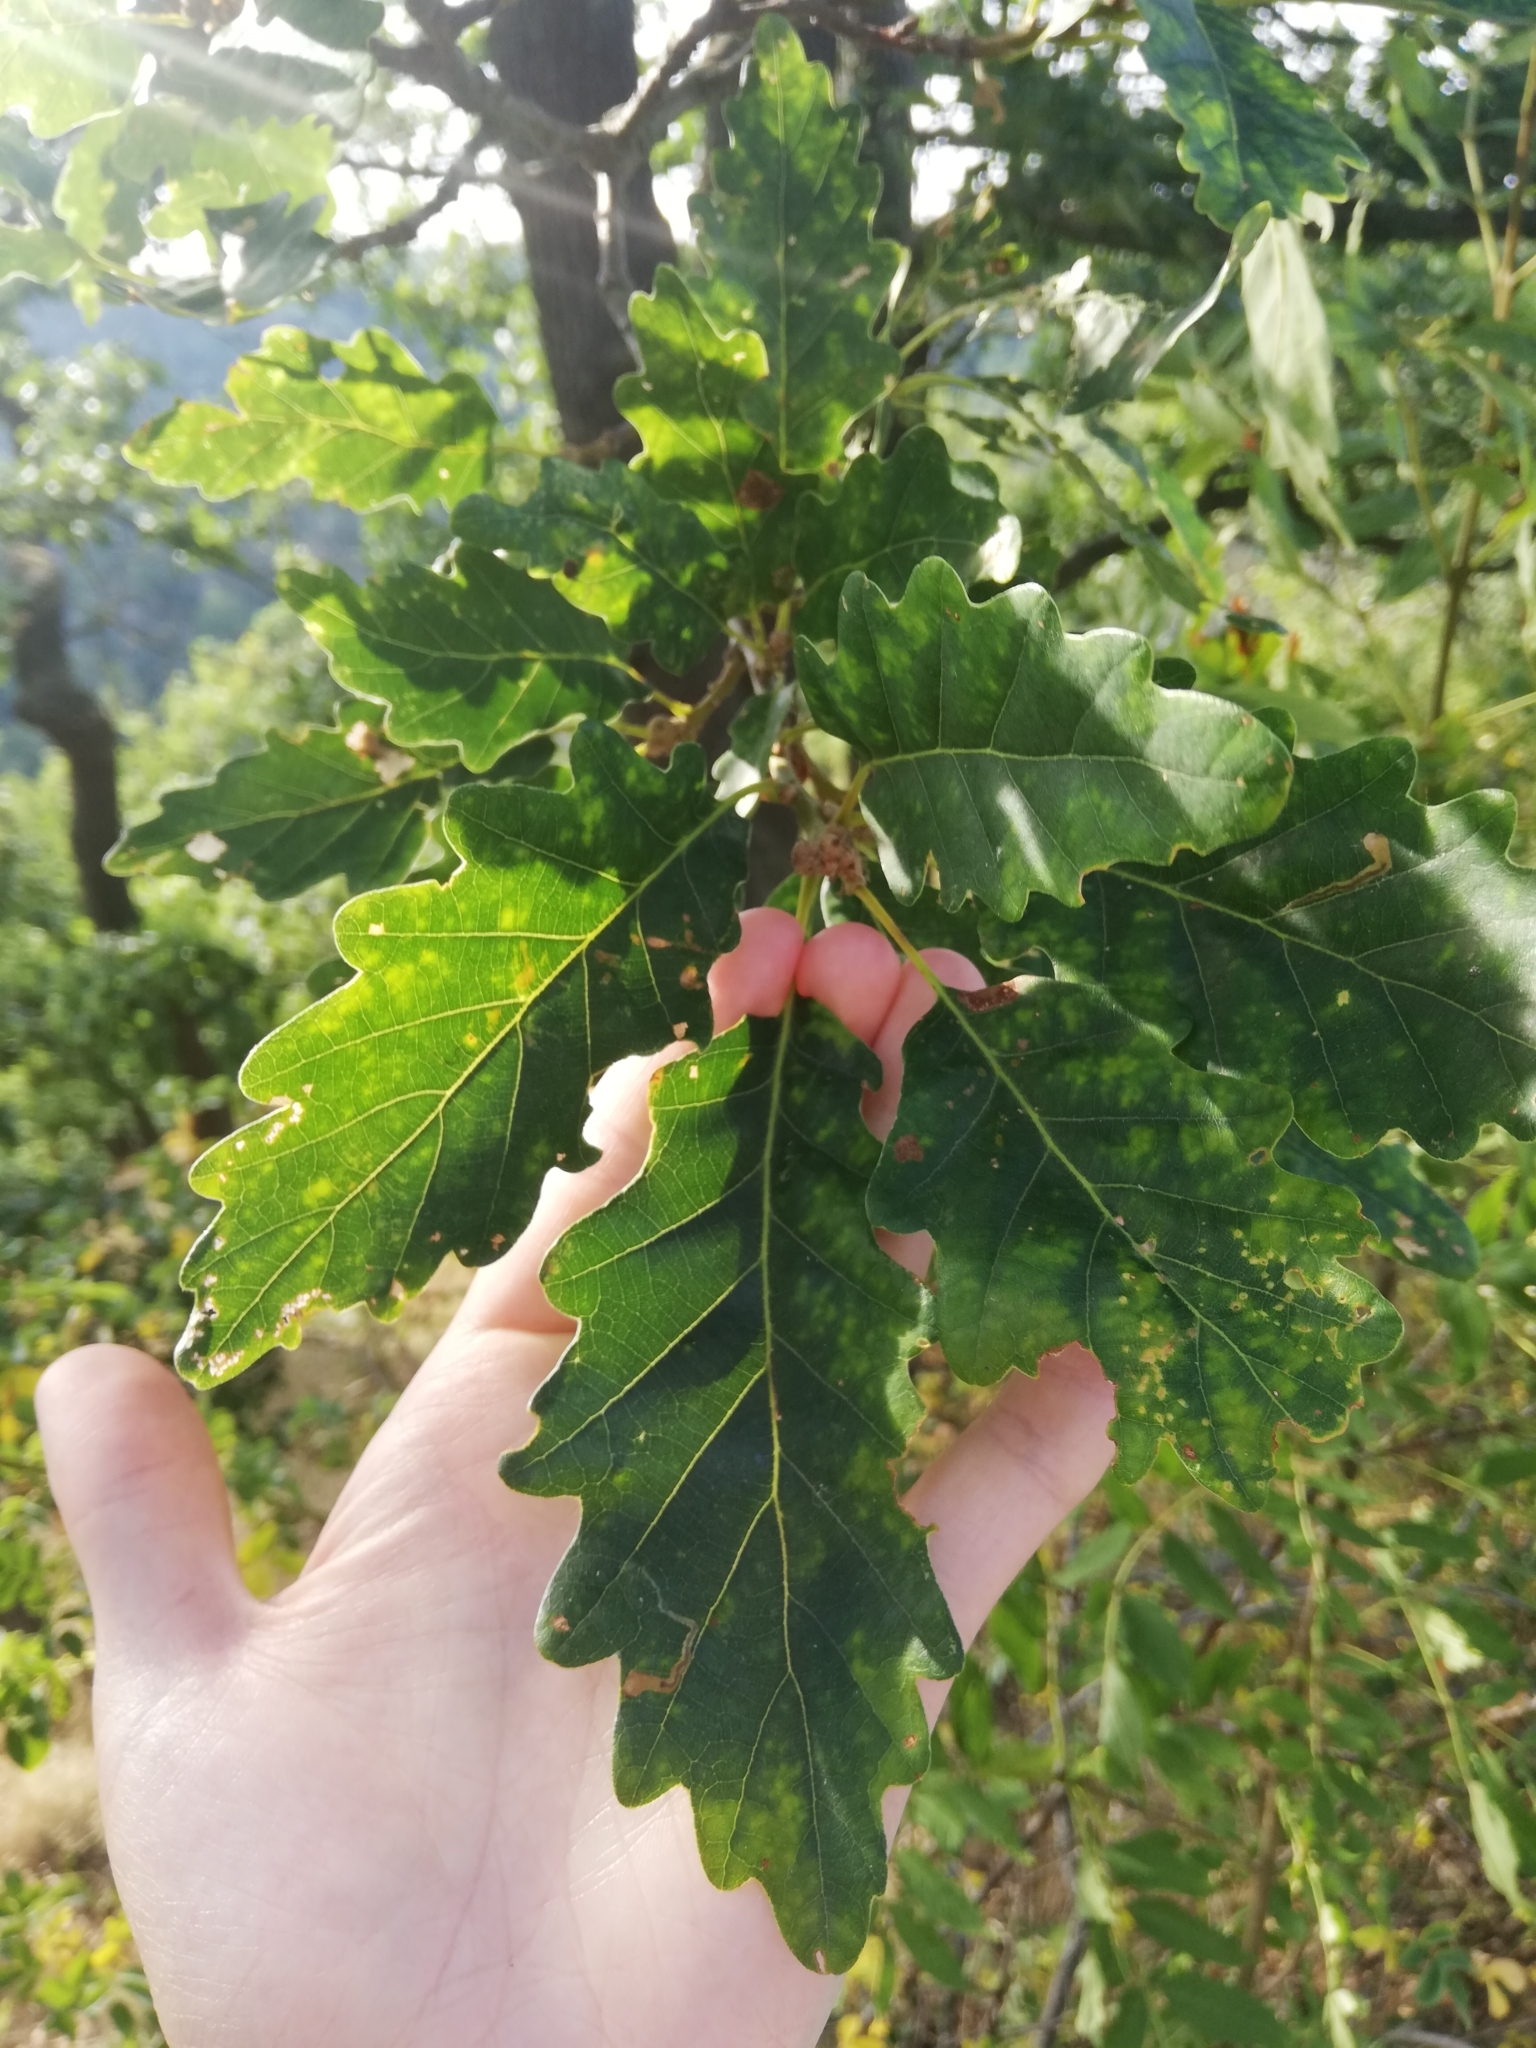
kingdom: Plantae
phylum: Tracheophyta
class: Magnoliopsida
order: Fagales
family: Fagaceae
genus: Quercus
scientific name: Quercus petraea
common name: Sessile oak
